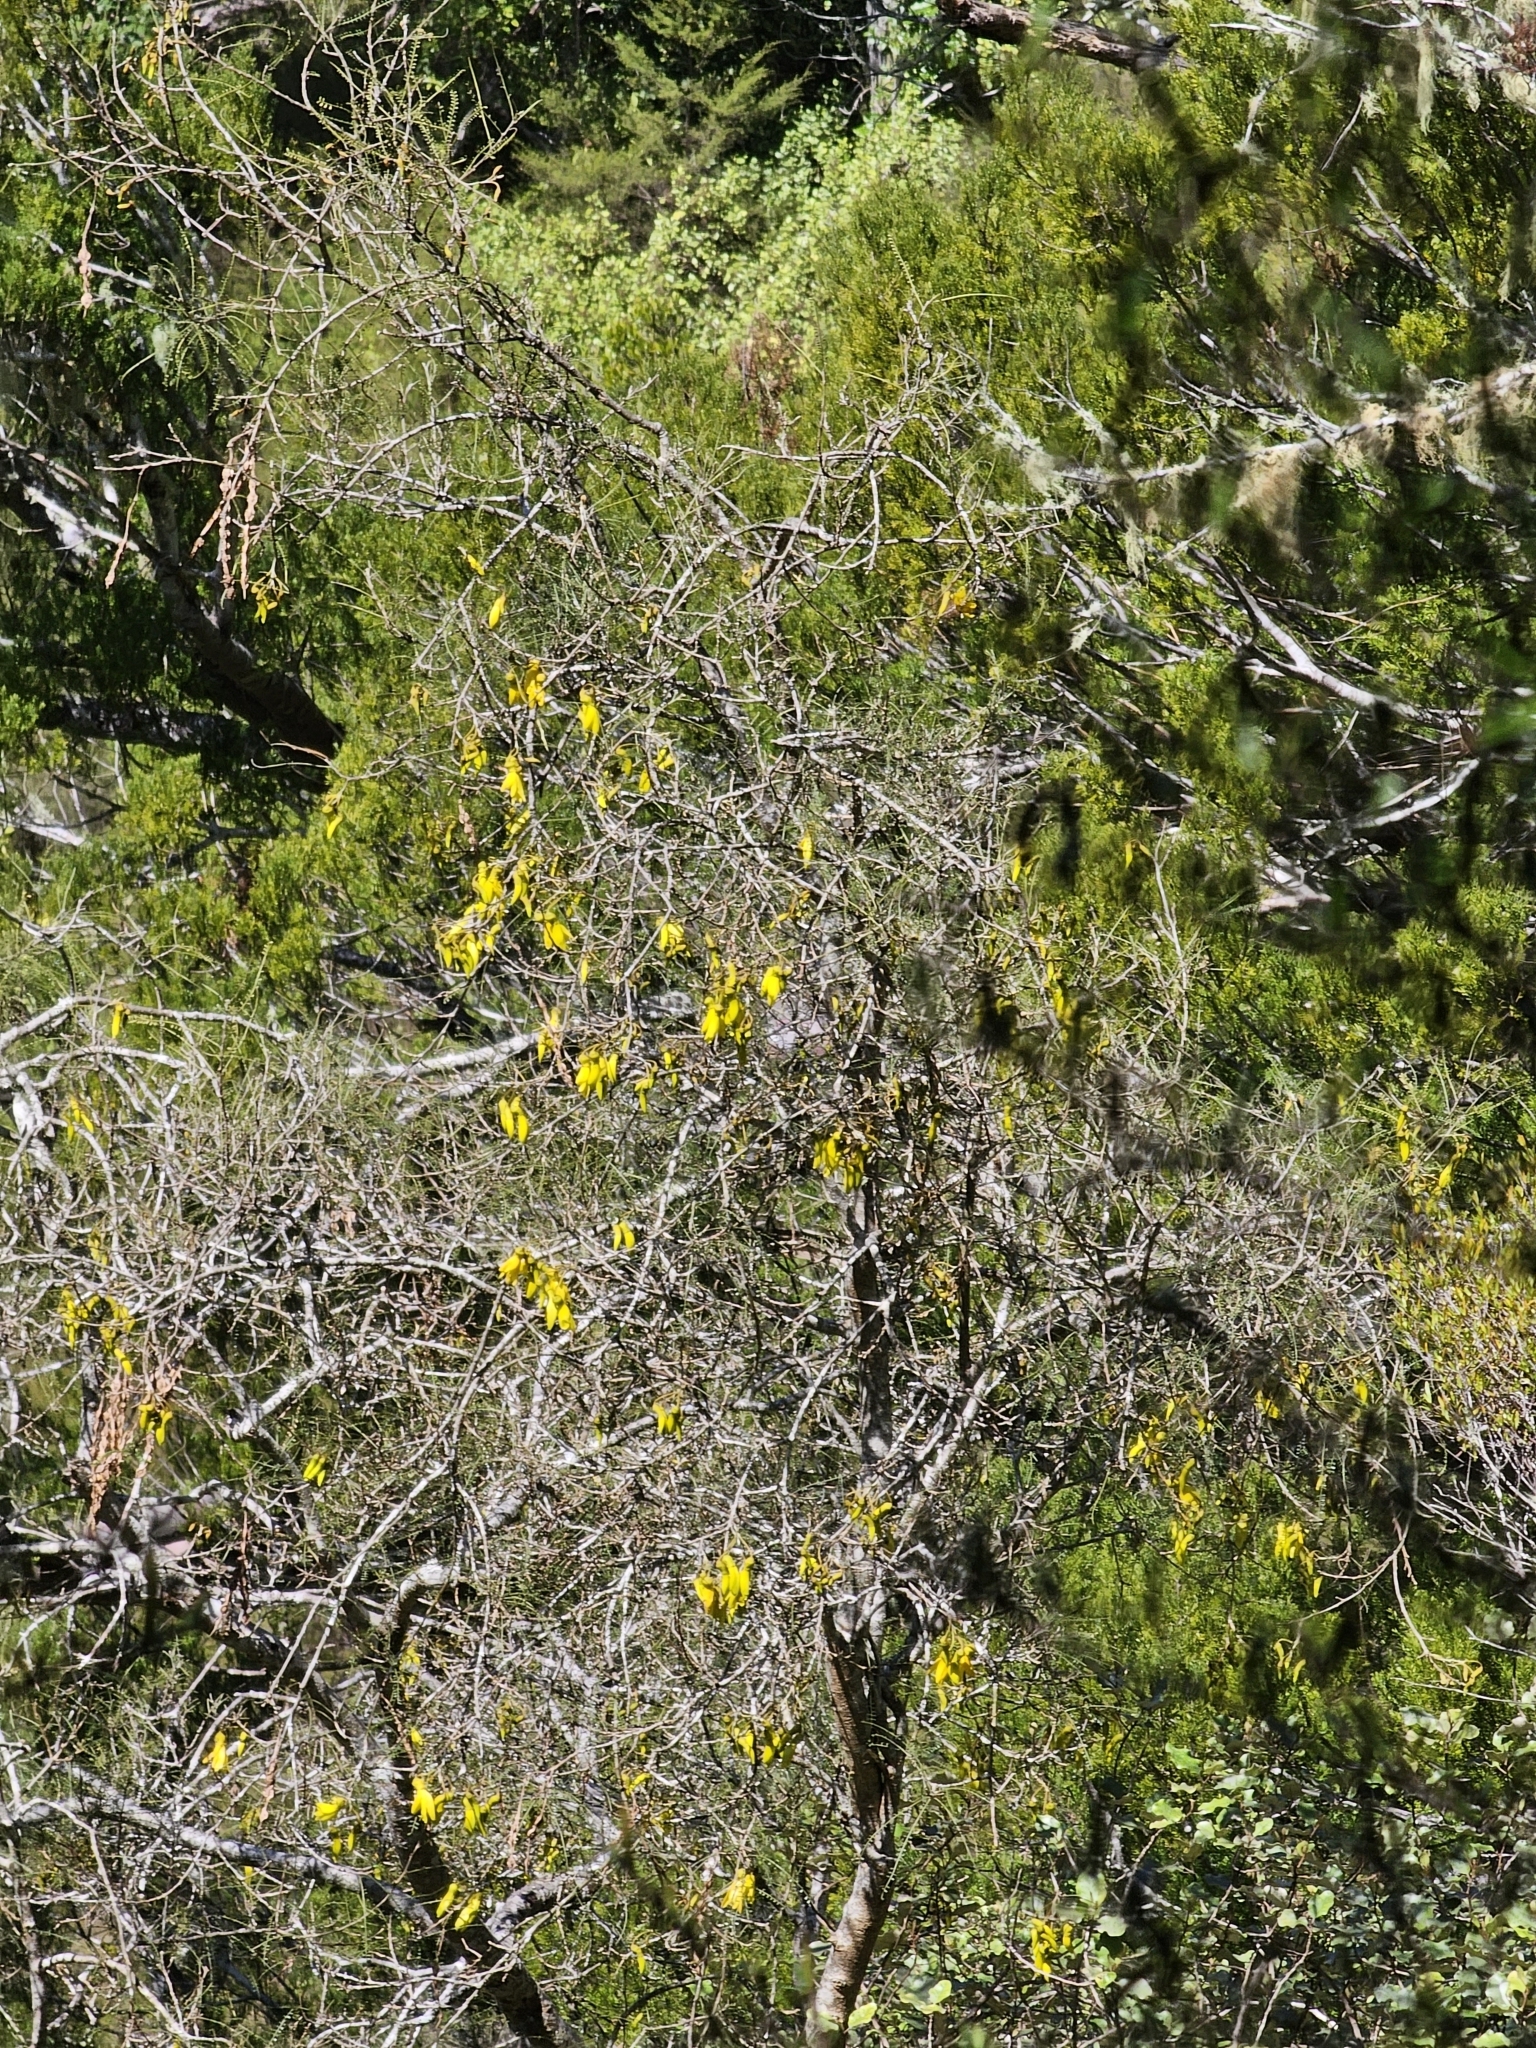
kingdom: Plantae
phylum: Tracheophyta
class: Magnoliopsida
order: Fabales
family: Fabaceae
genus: Sophora
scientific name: Sophora microphylla
